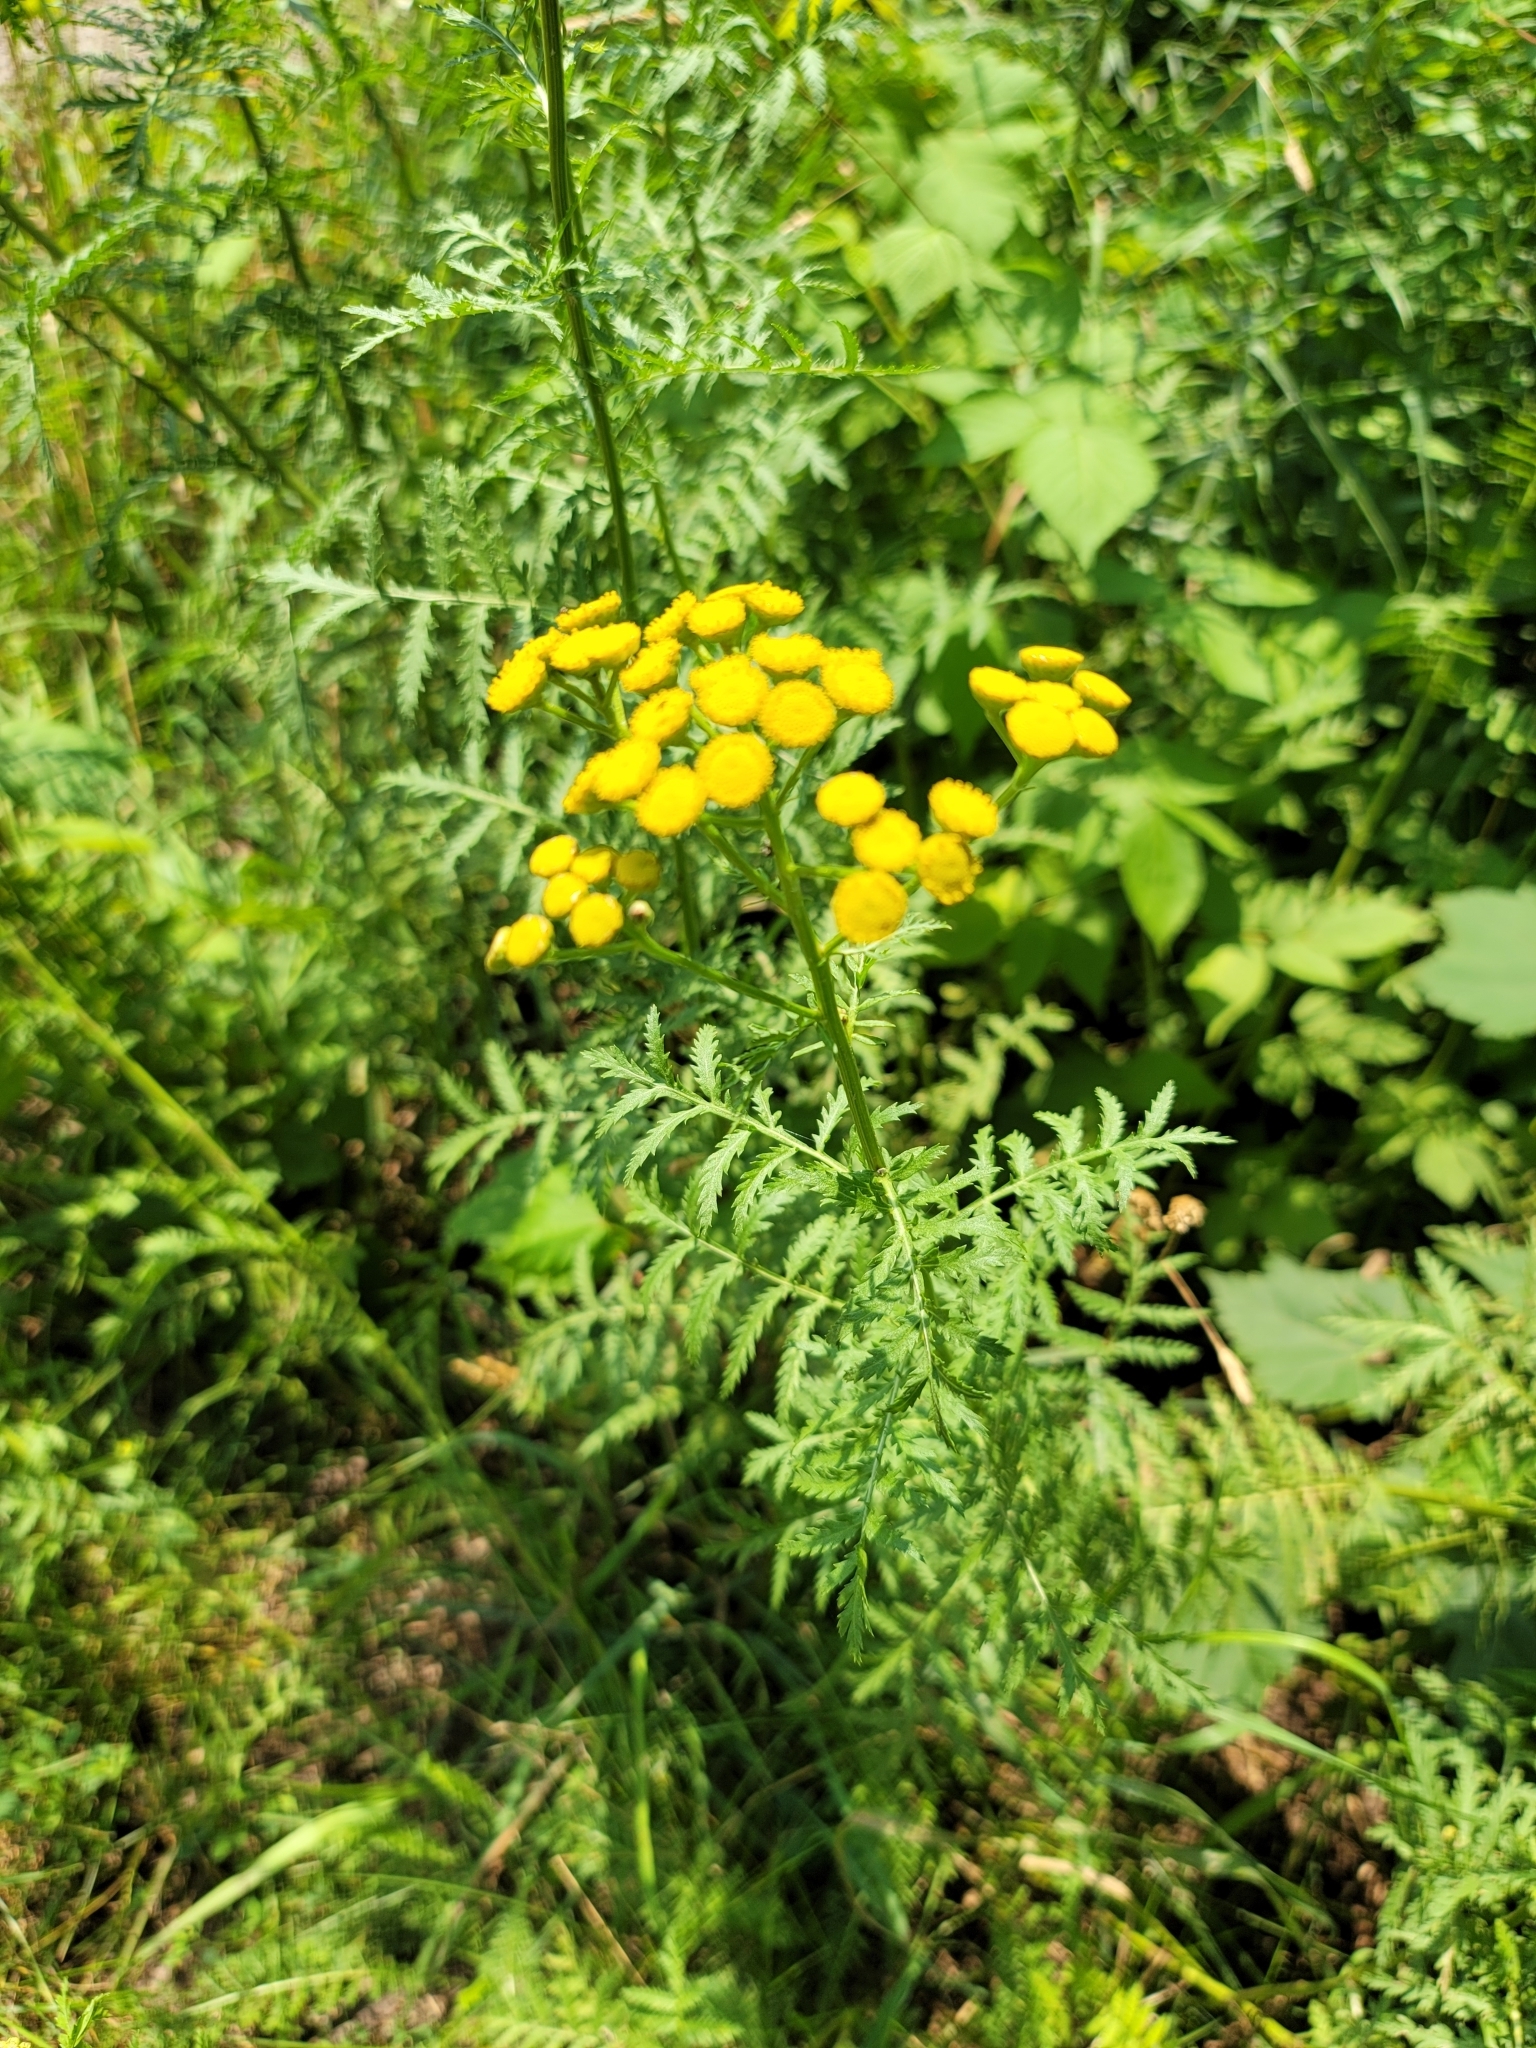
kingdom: Plantae
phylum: Tracheophyta
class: Magnoliopsida
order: Asterales
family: Asteraceae
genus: Tanacetum
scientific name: Tanacetum vulgare
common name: Common tansy
